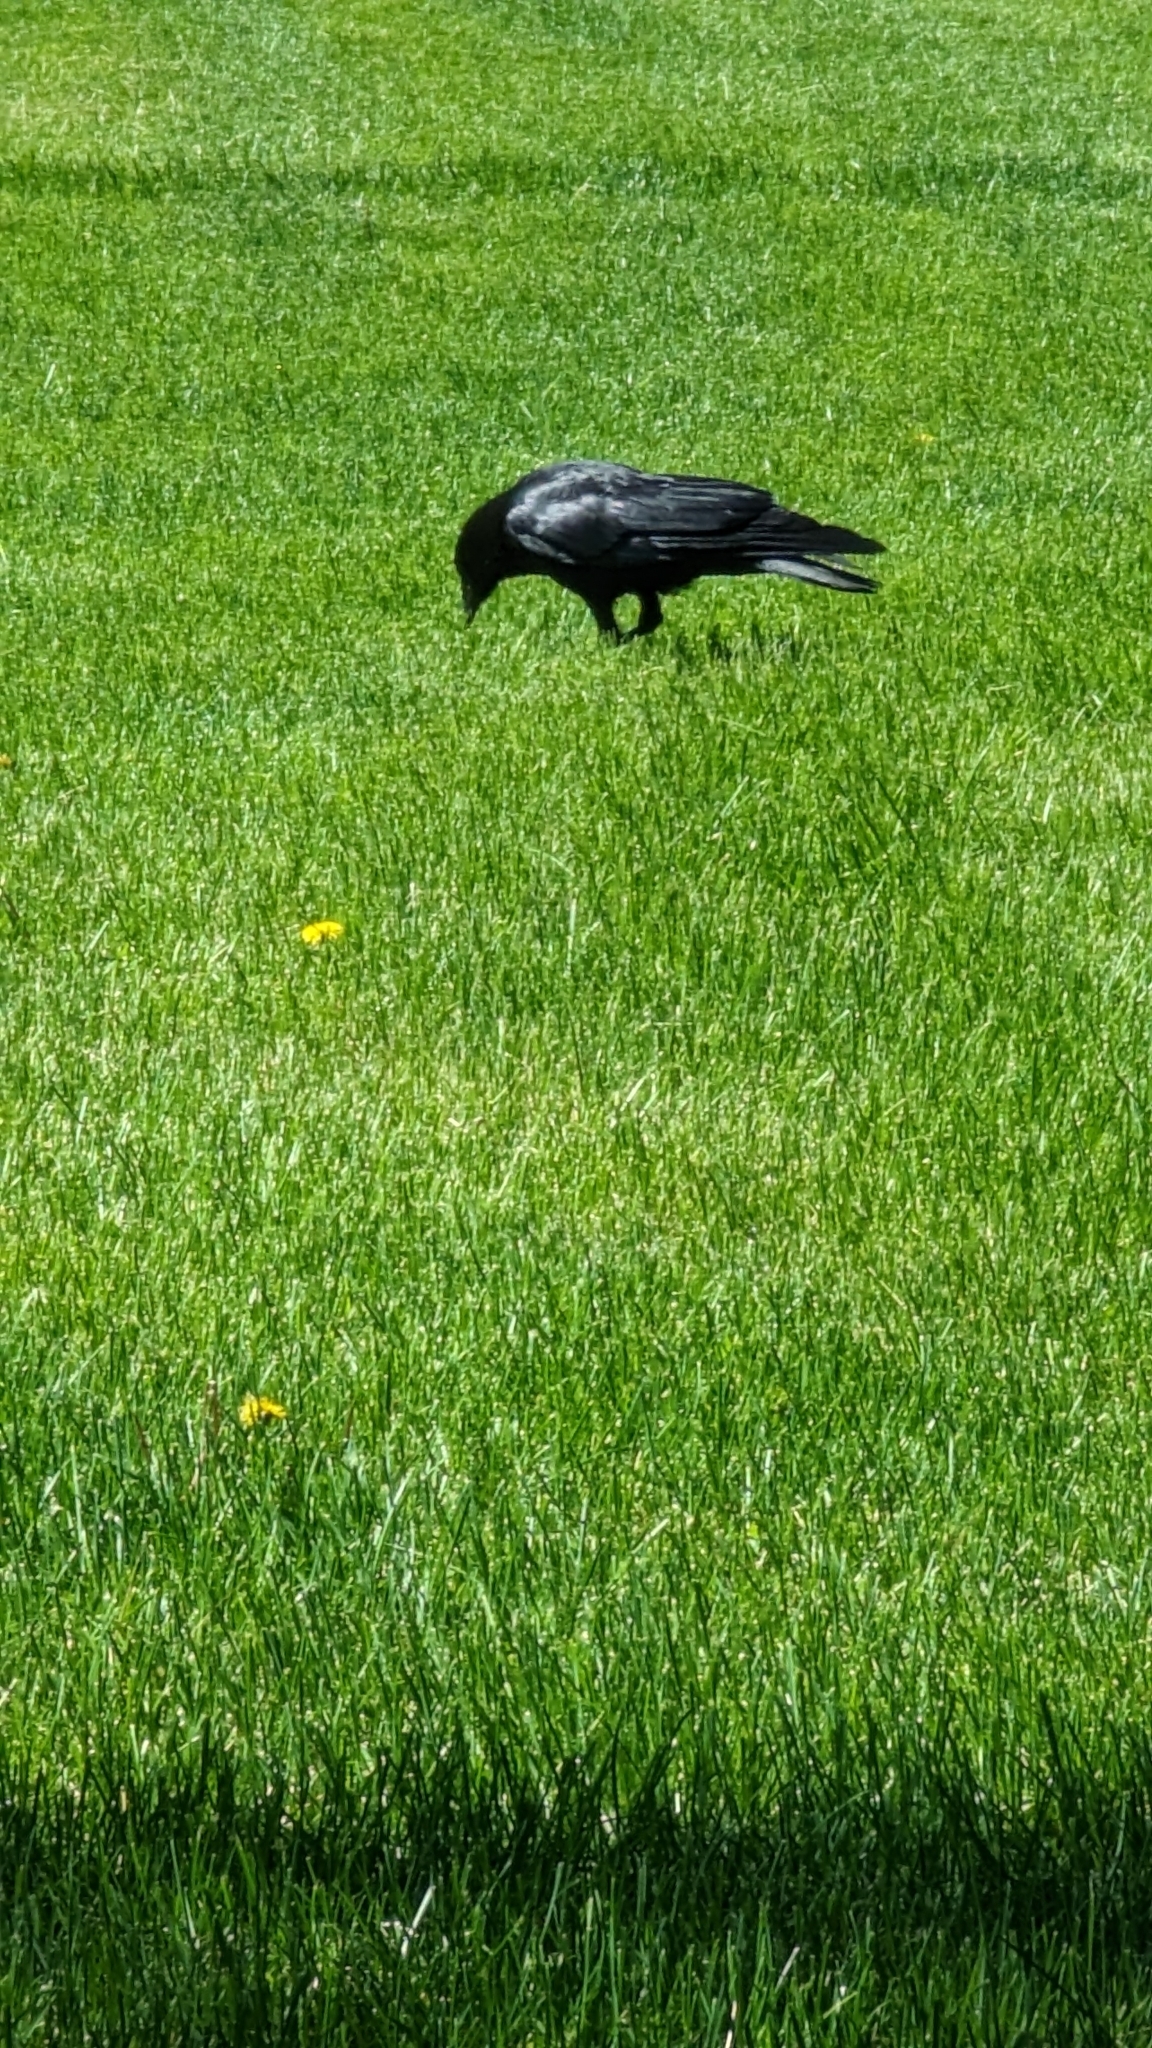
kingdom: Animalia
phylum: Chordata
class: Aves
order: Passeriformes
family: Corvidae
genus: Corvus
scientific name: Corvus brachyrhynchos
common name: American crow
